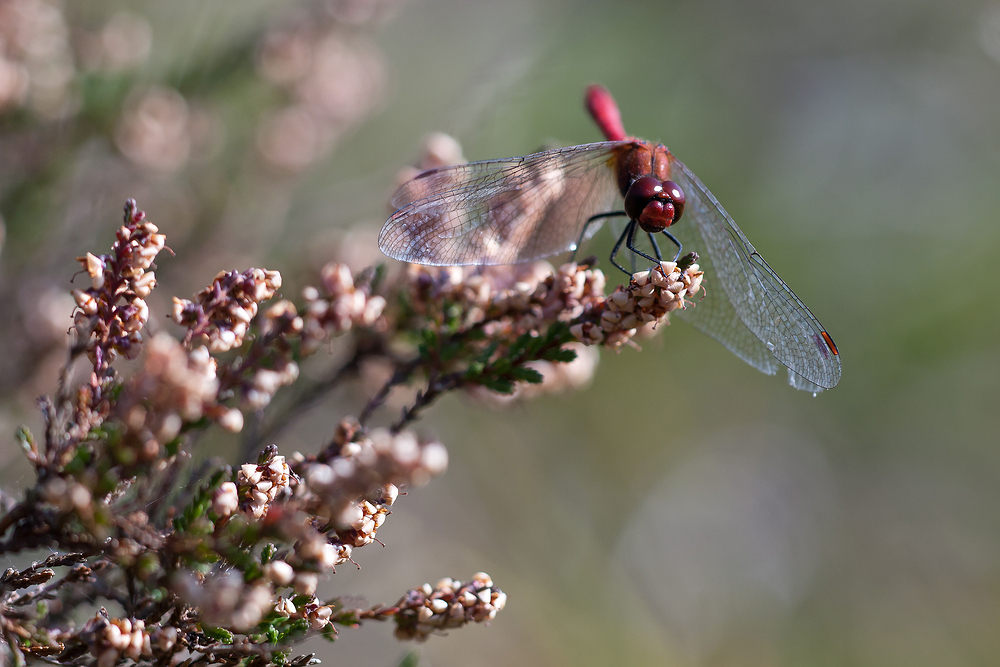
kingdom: Animalia
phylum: Arthropoda
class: Insecta
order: Odonata
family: Libellulidae
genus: Sympetrum
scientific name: Sympetrum sanguineum
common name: Ruddy darter
